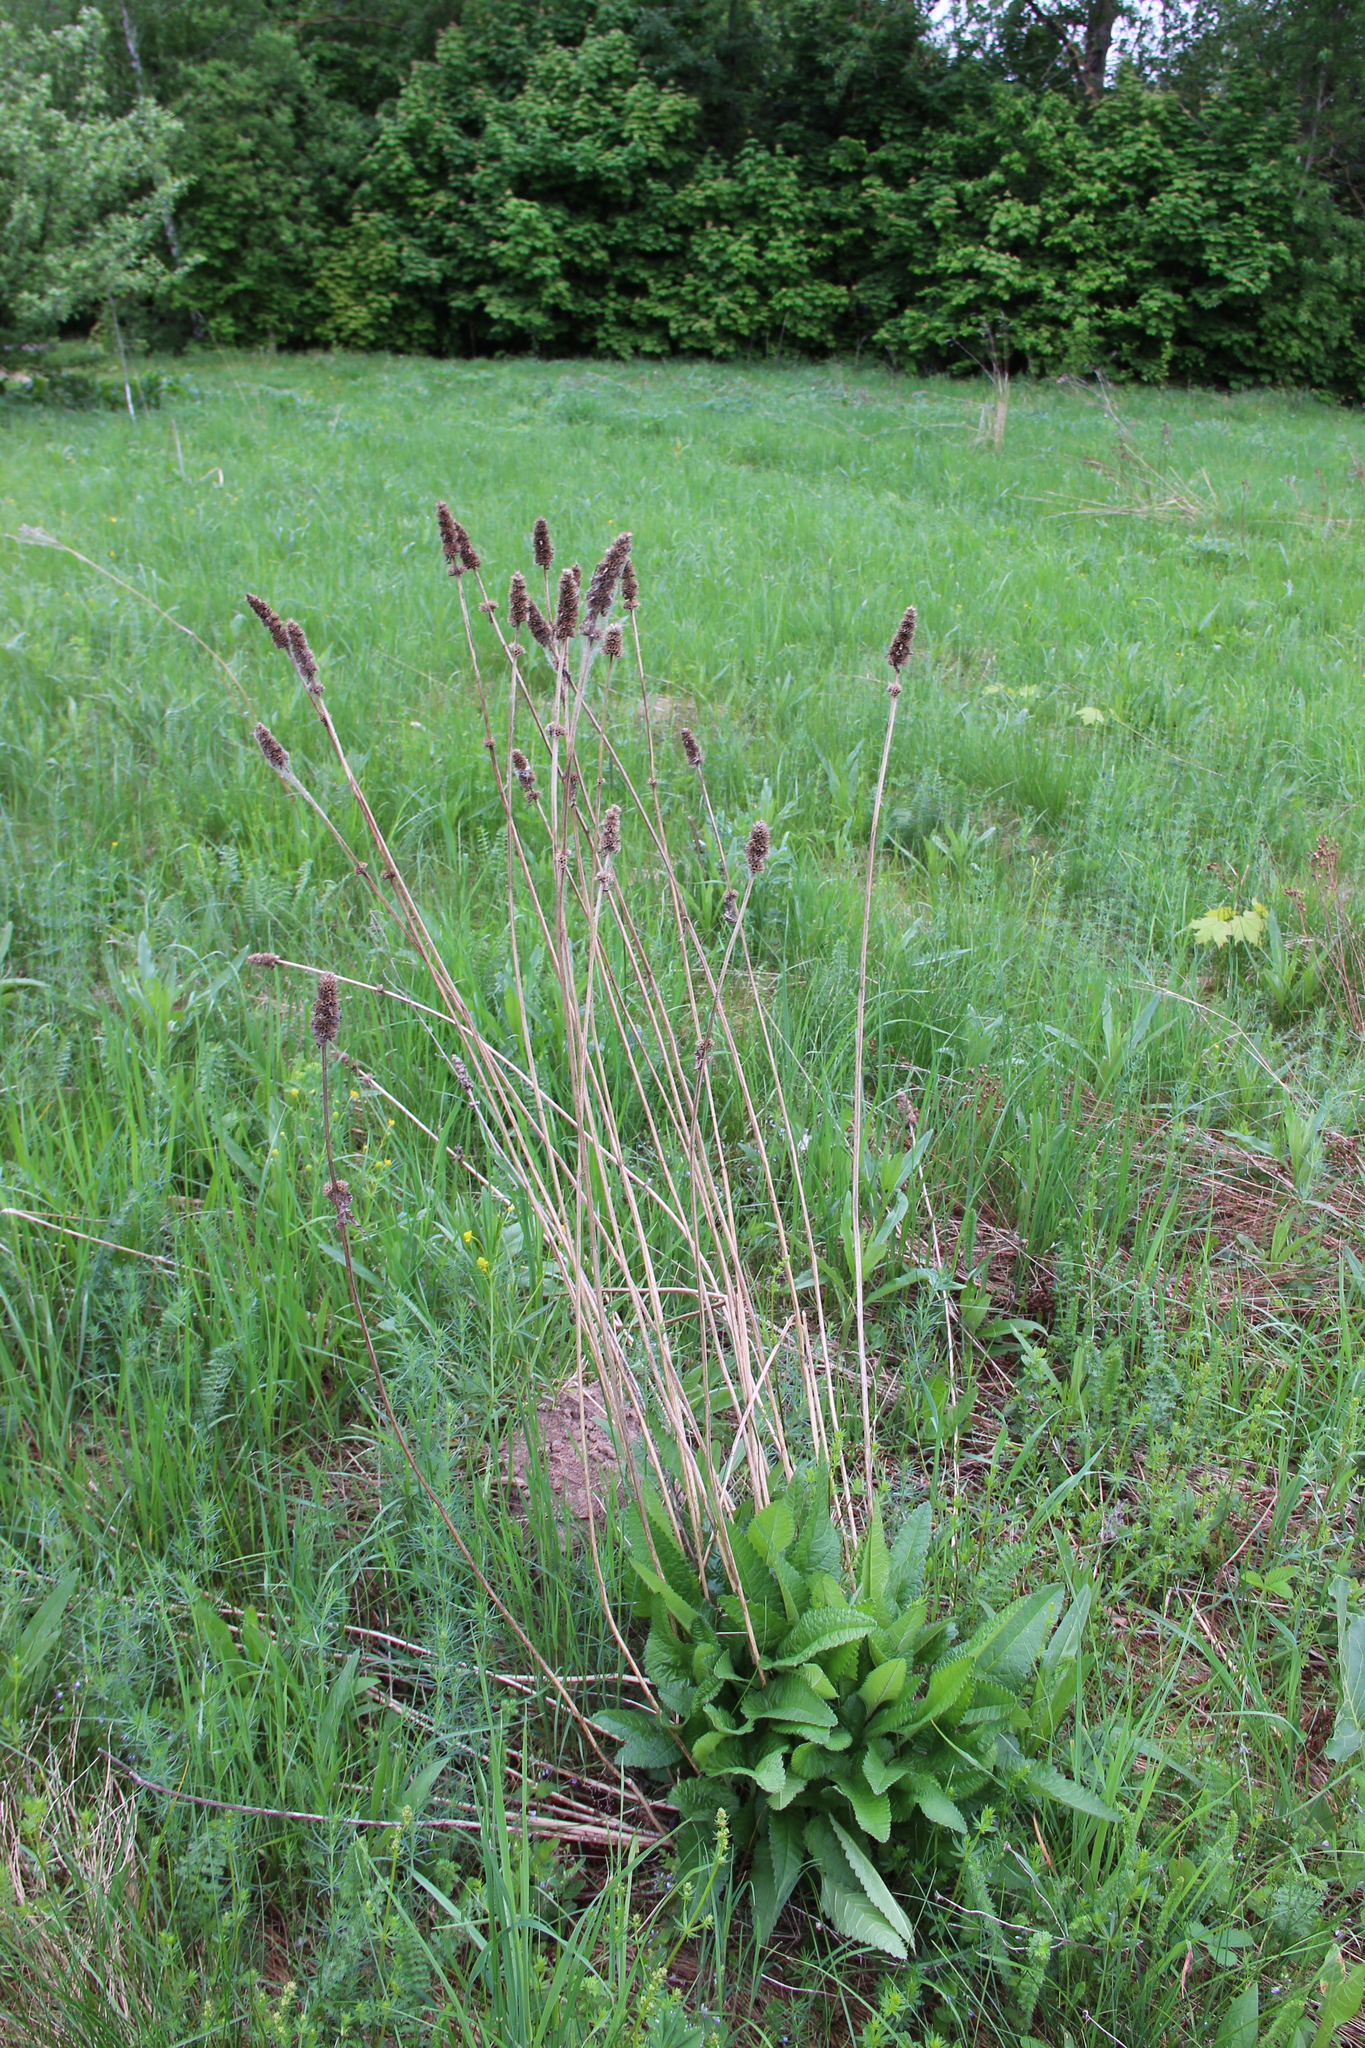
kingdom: Plantae
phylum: Tracheophyta
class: Magnoliopsida
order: Lamiales
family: Lamiaceae
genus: Betonica
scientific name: Betonica officinalis
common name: Bishop's-wort
